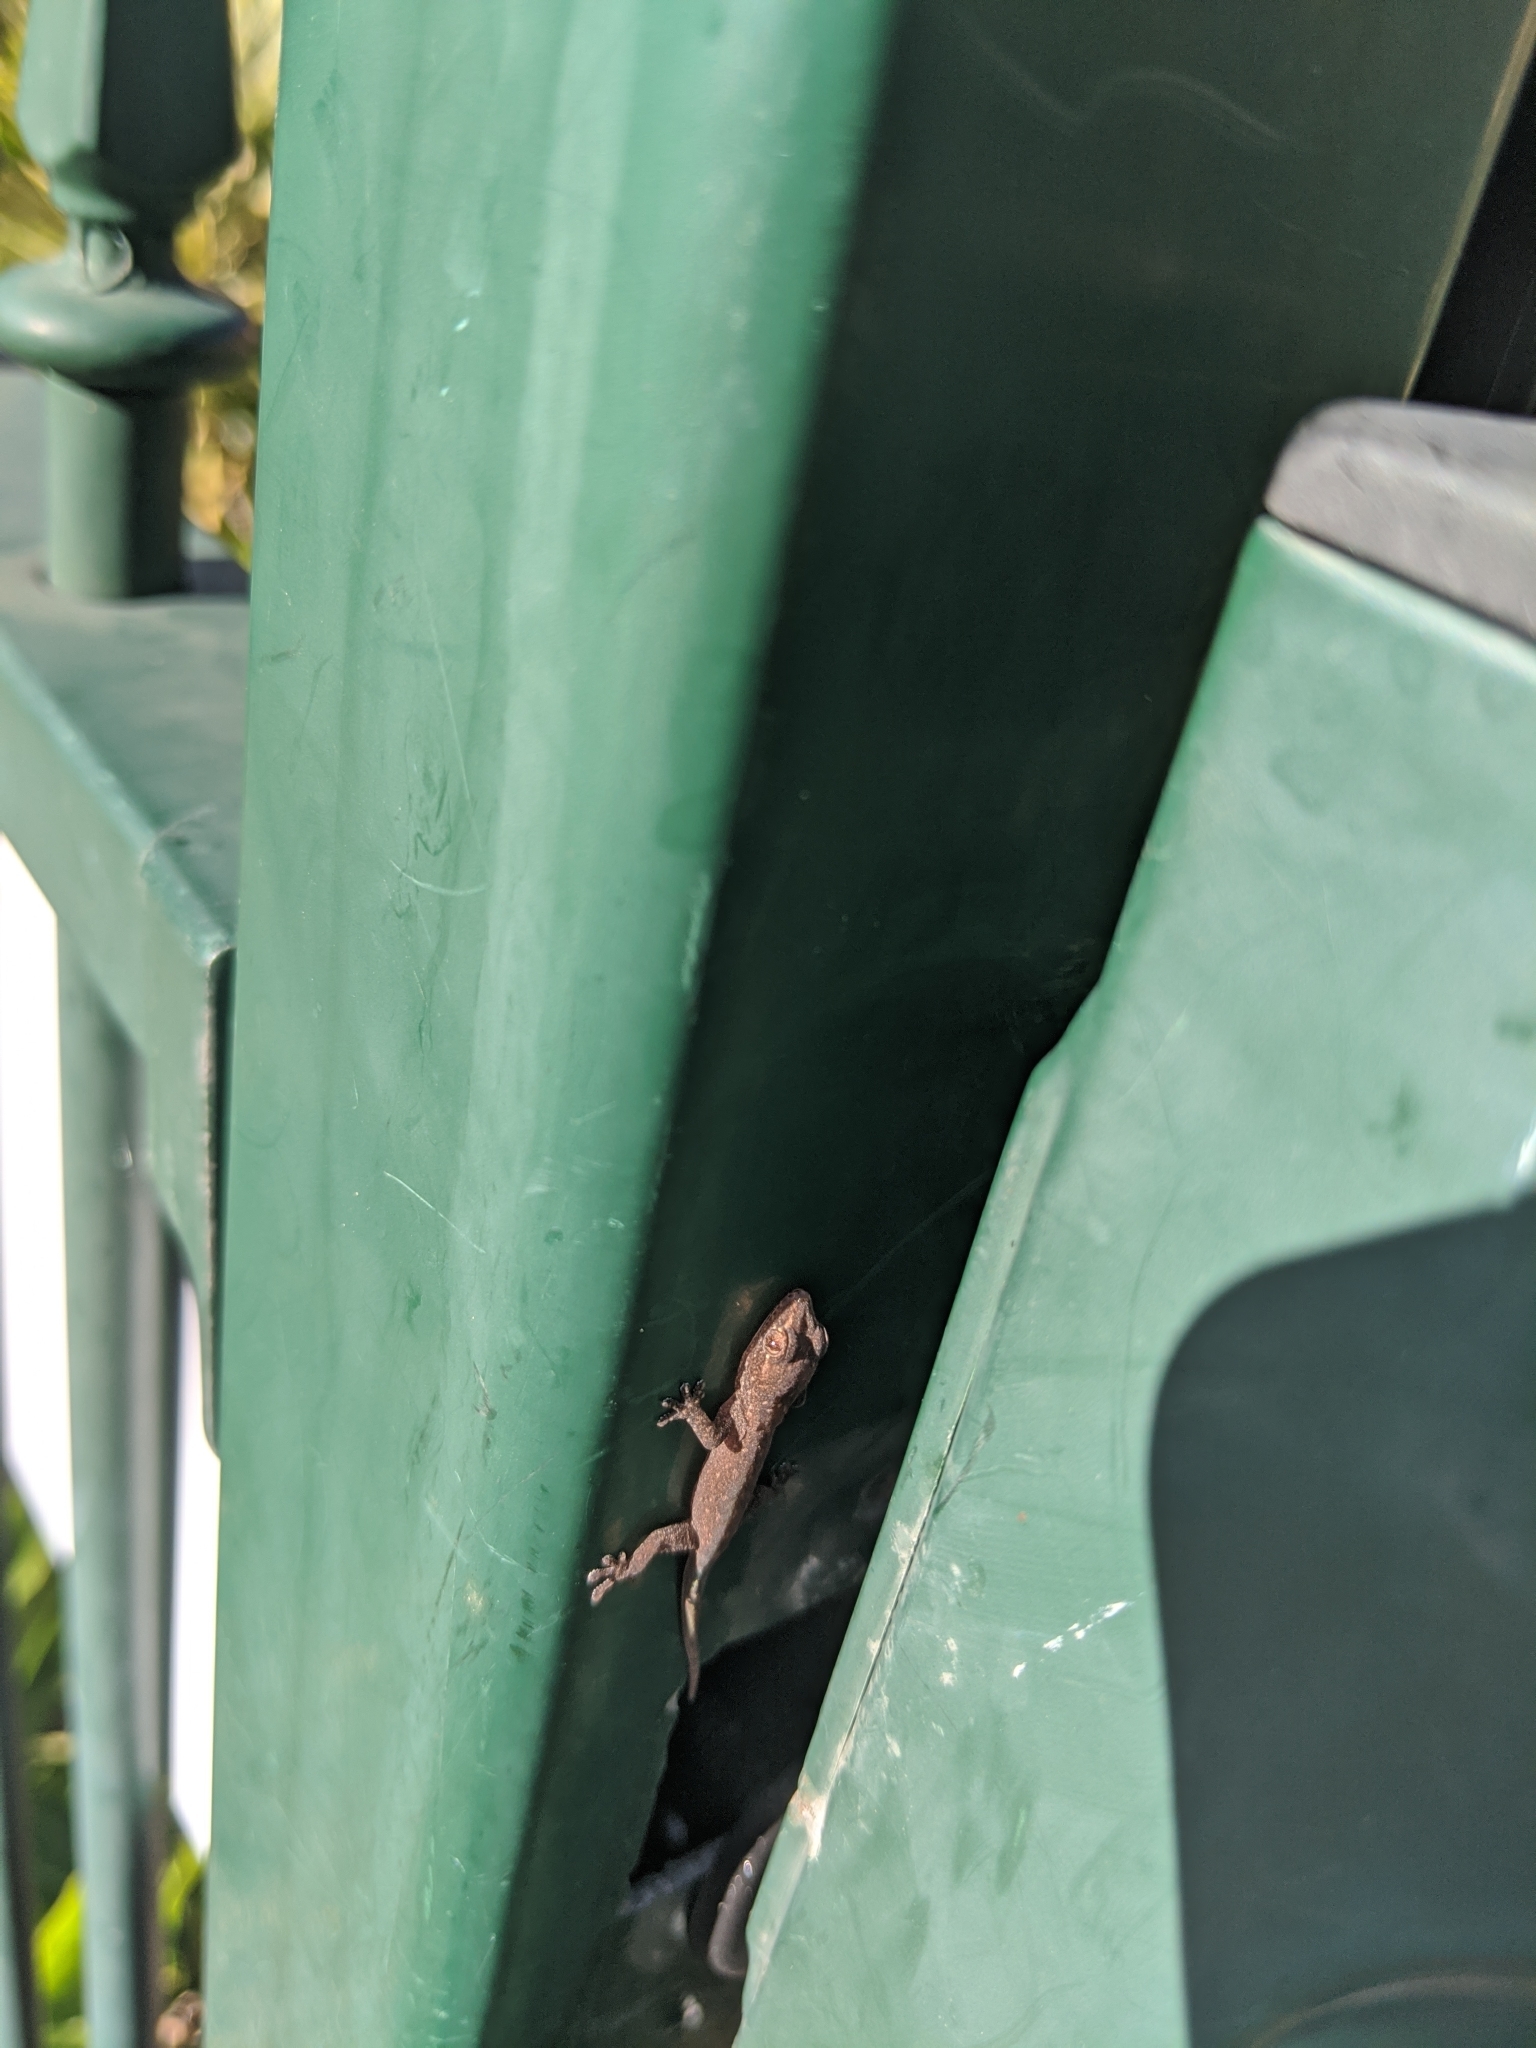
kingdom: Animalia
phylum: Chordata
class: Squamata
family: Gekkonidae
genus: Hemidactylus
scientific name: Hemidactylus frenatus
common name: Common house gecko
